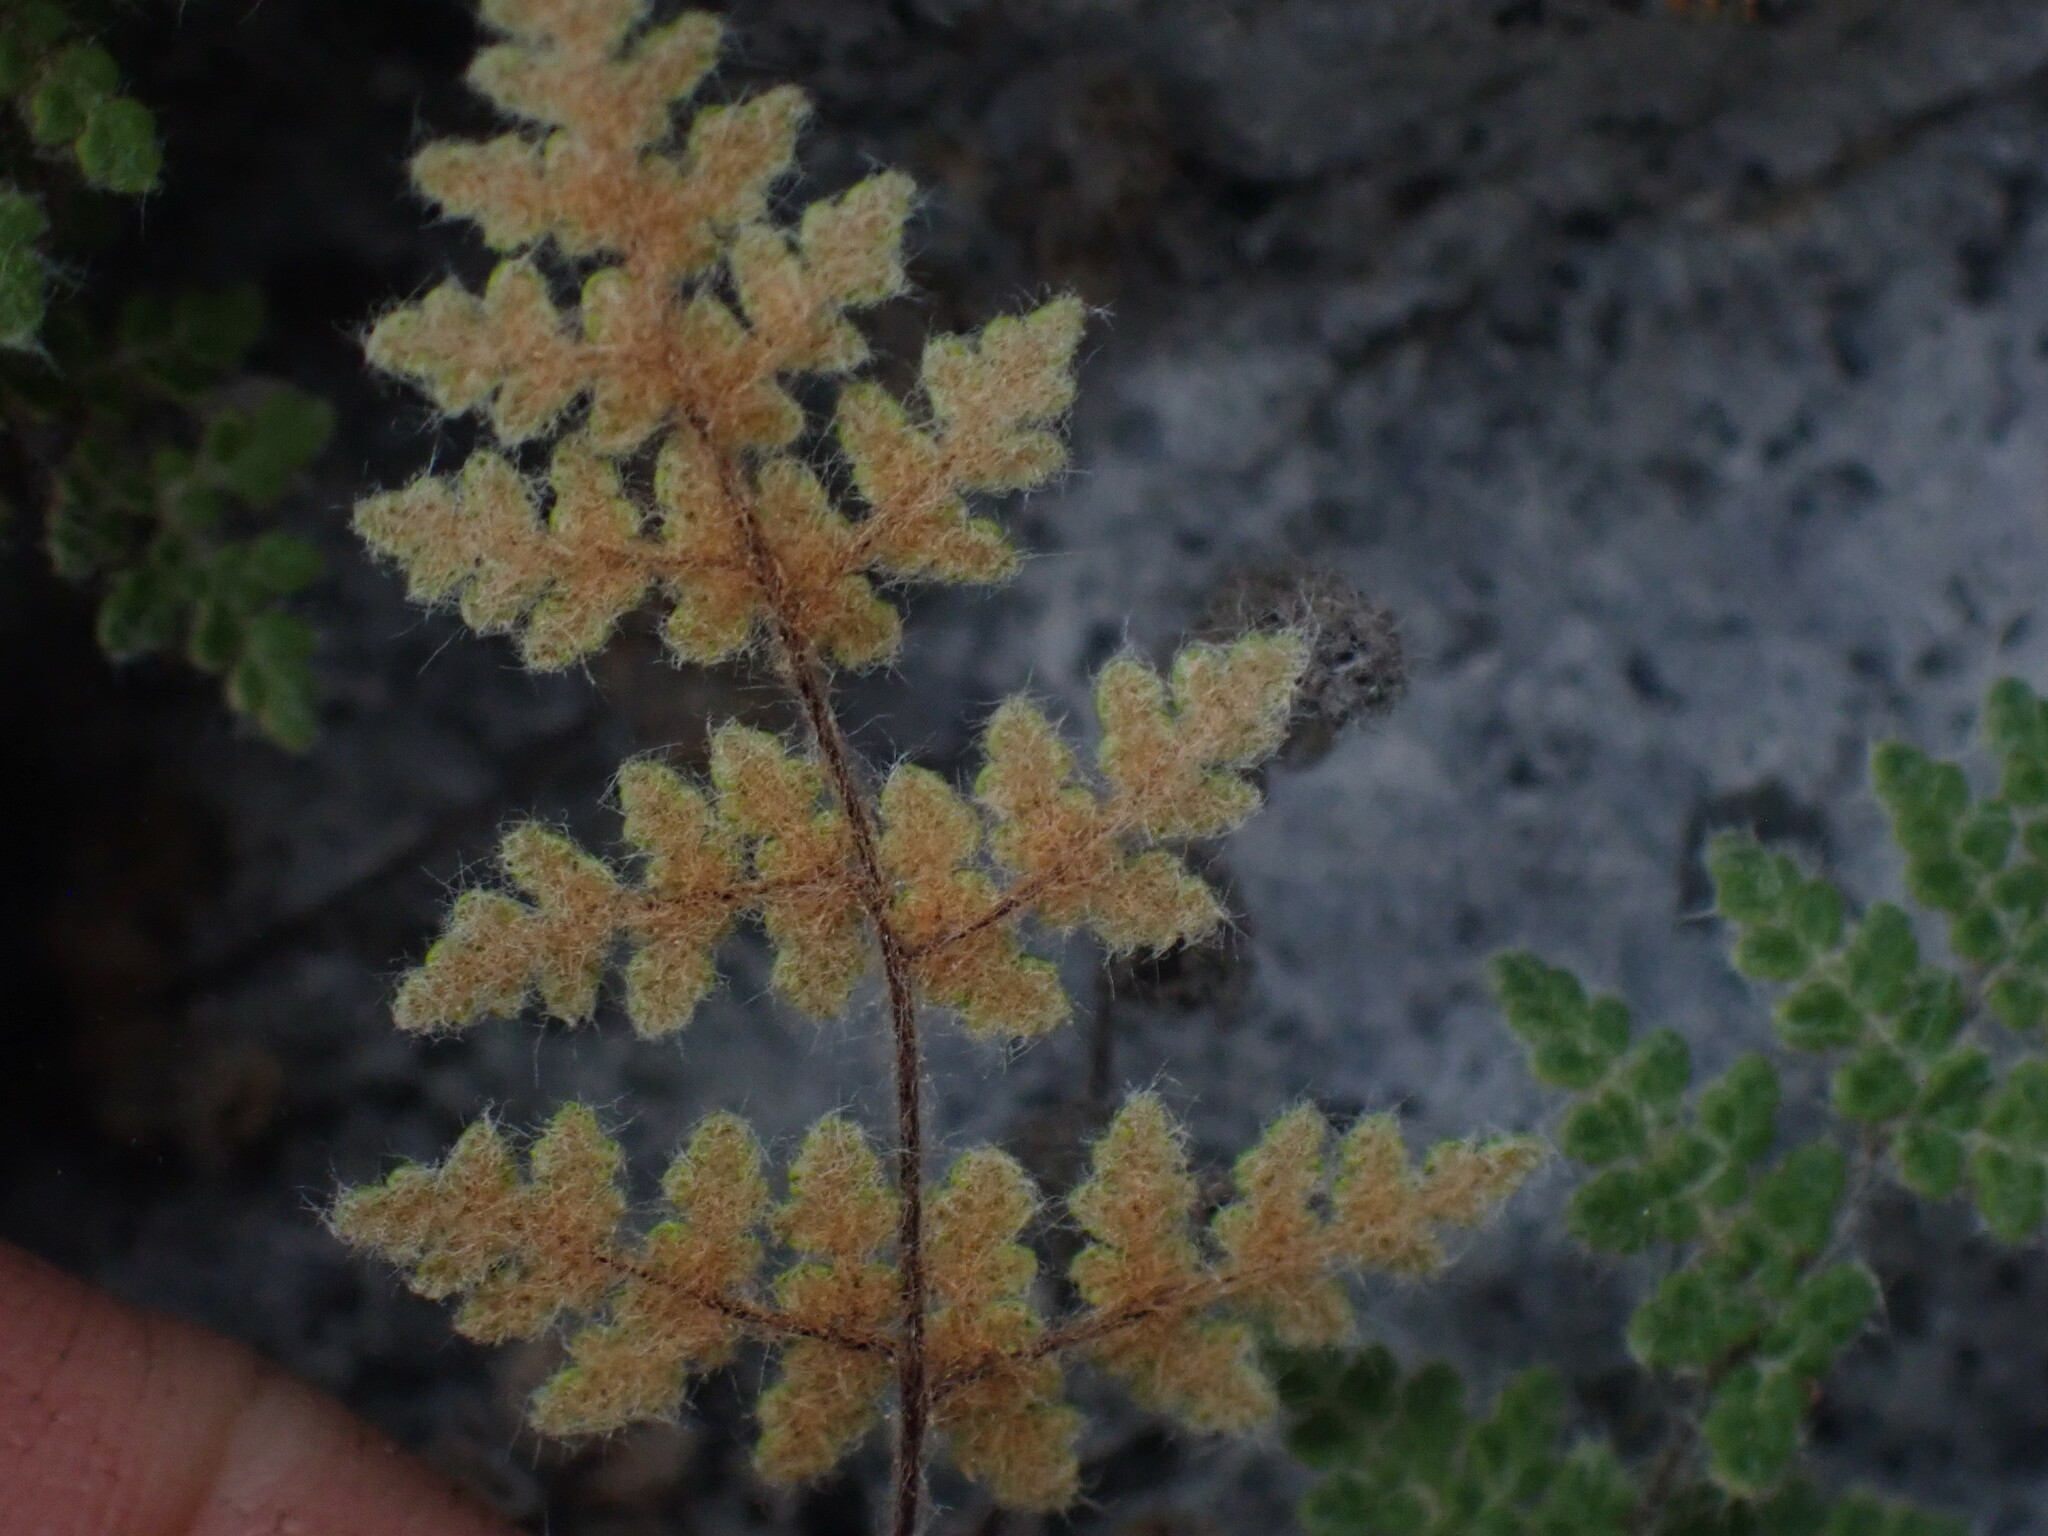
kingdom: Plantae
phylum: Tracheophyta
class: Polypodiopsida
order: Polypodiales
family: Pteridaceae
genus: Myriopteris
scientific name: Myriopteris gracilis
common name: Fee's lip fern
